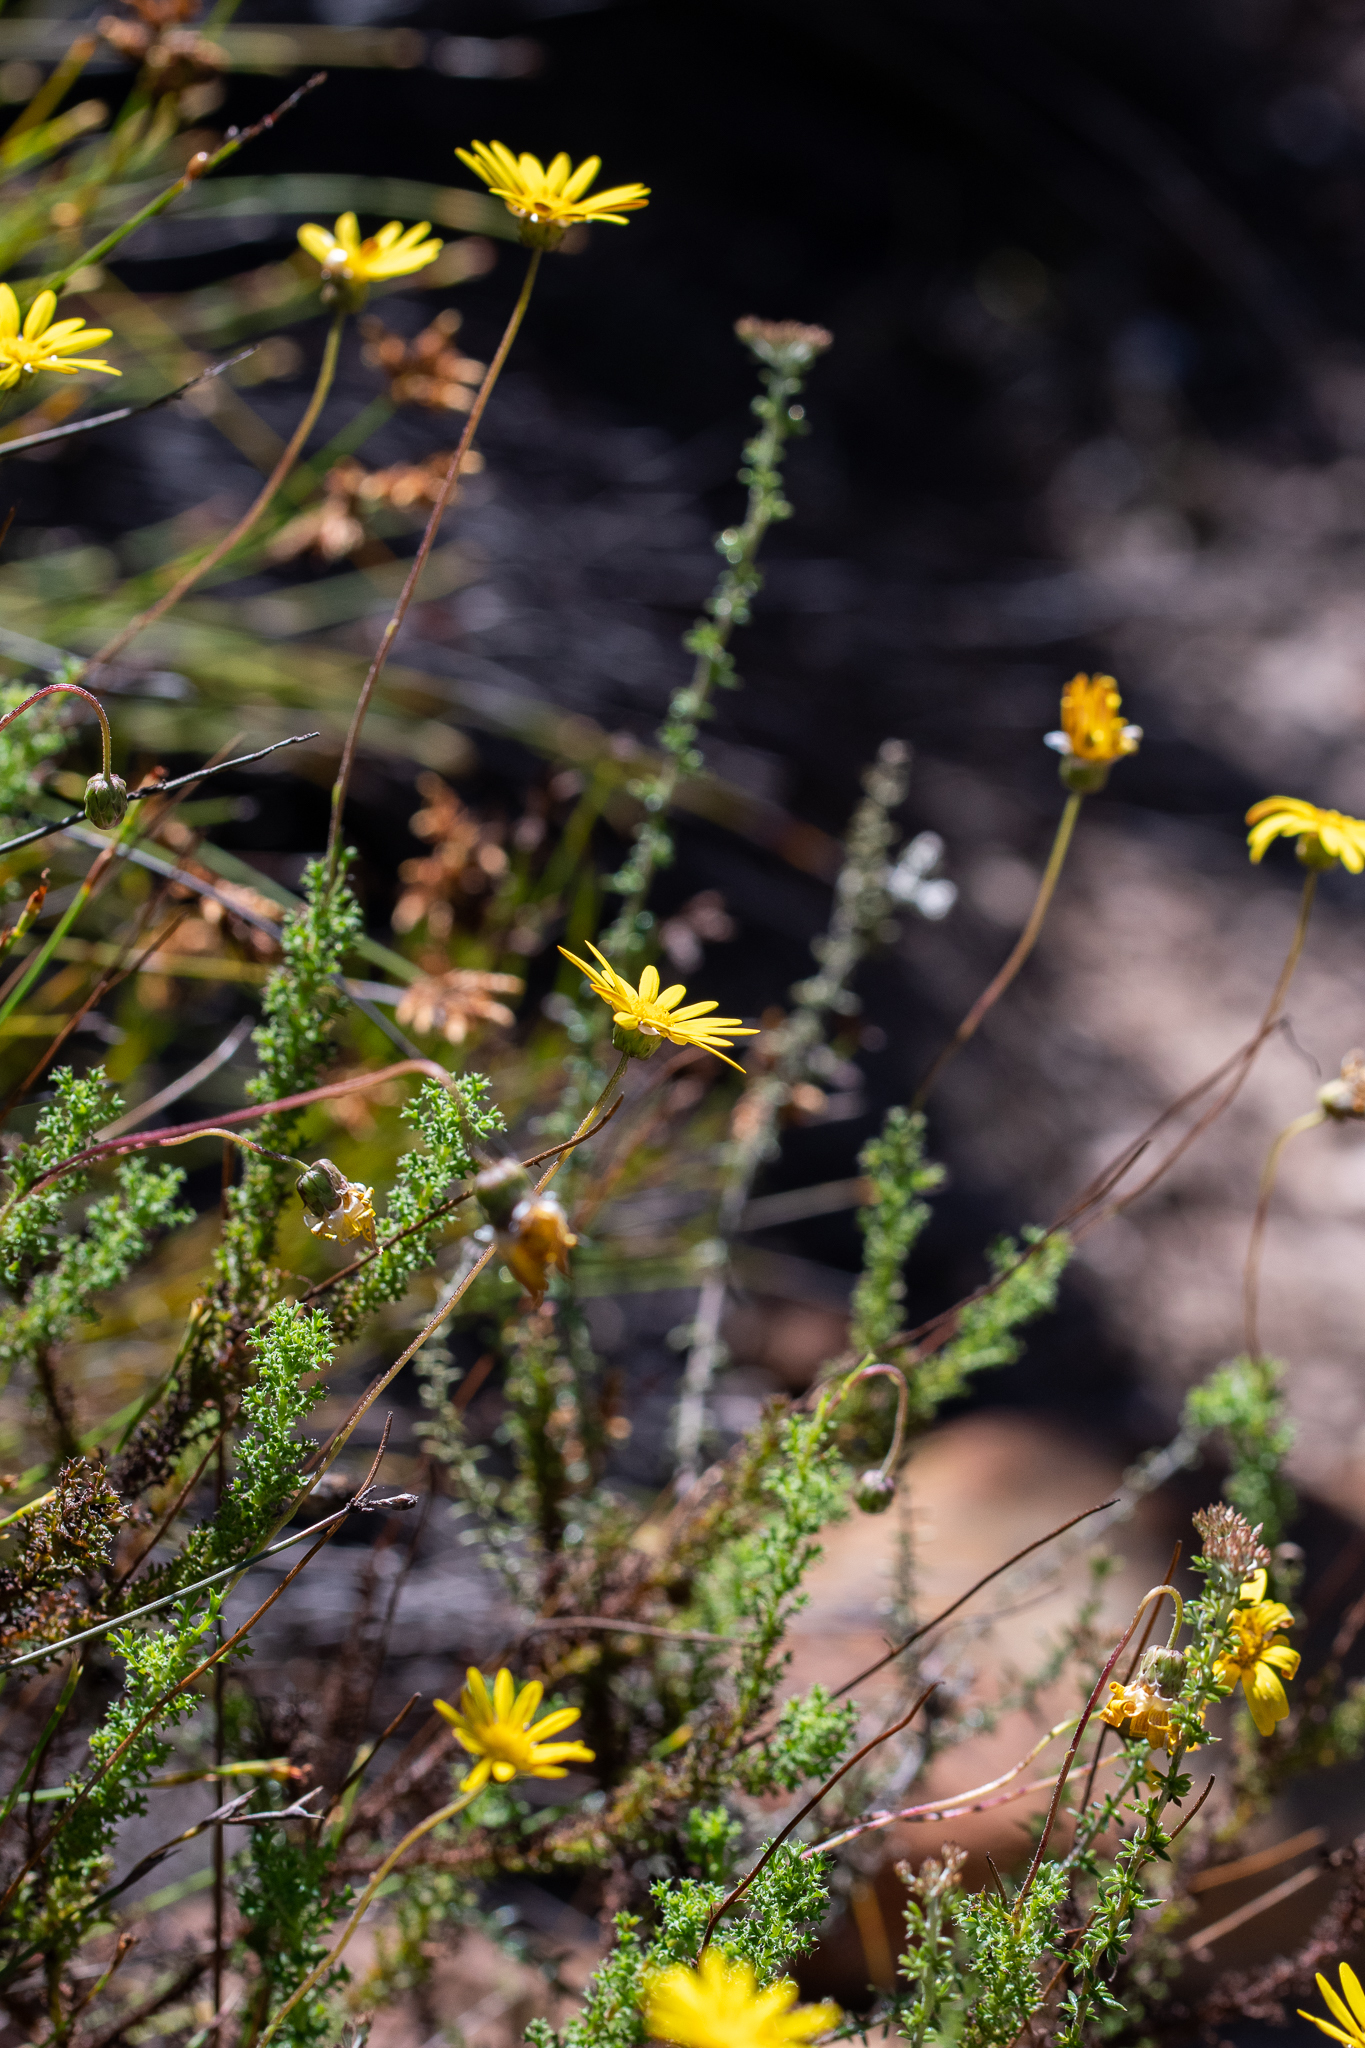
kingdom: Plantae
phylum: Tracheophyta
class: Magnoliopsida
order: Asterales
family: Asteraceae
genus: Ursinia
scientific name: Ursinia dentata
